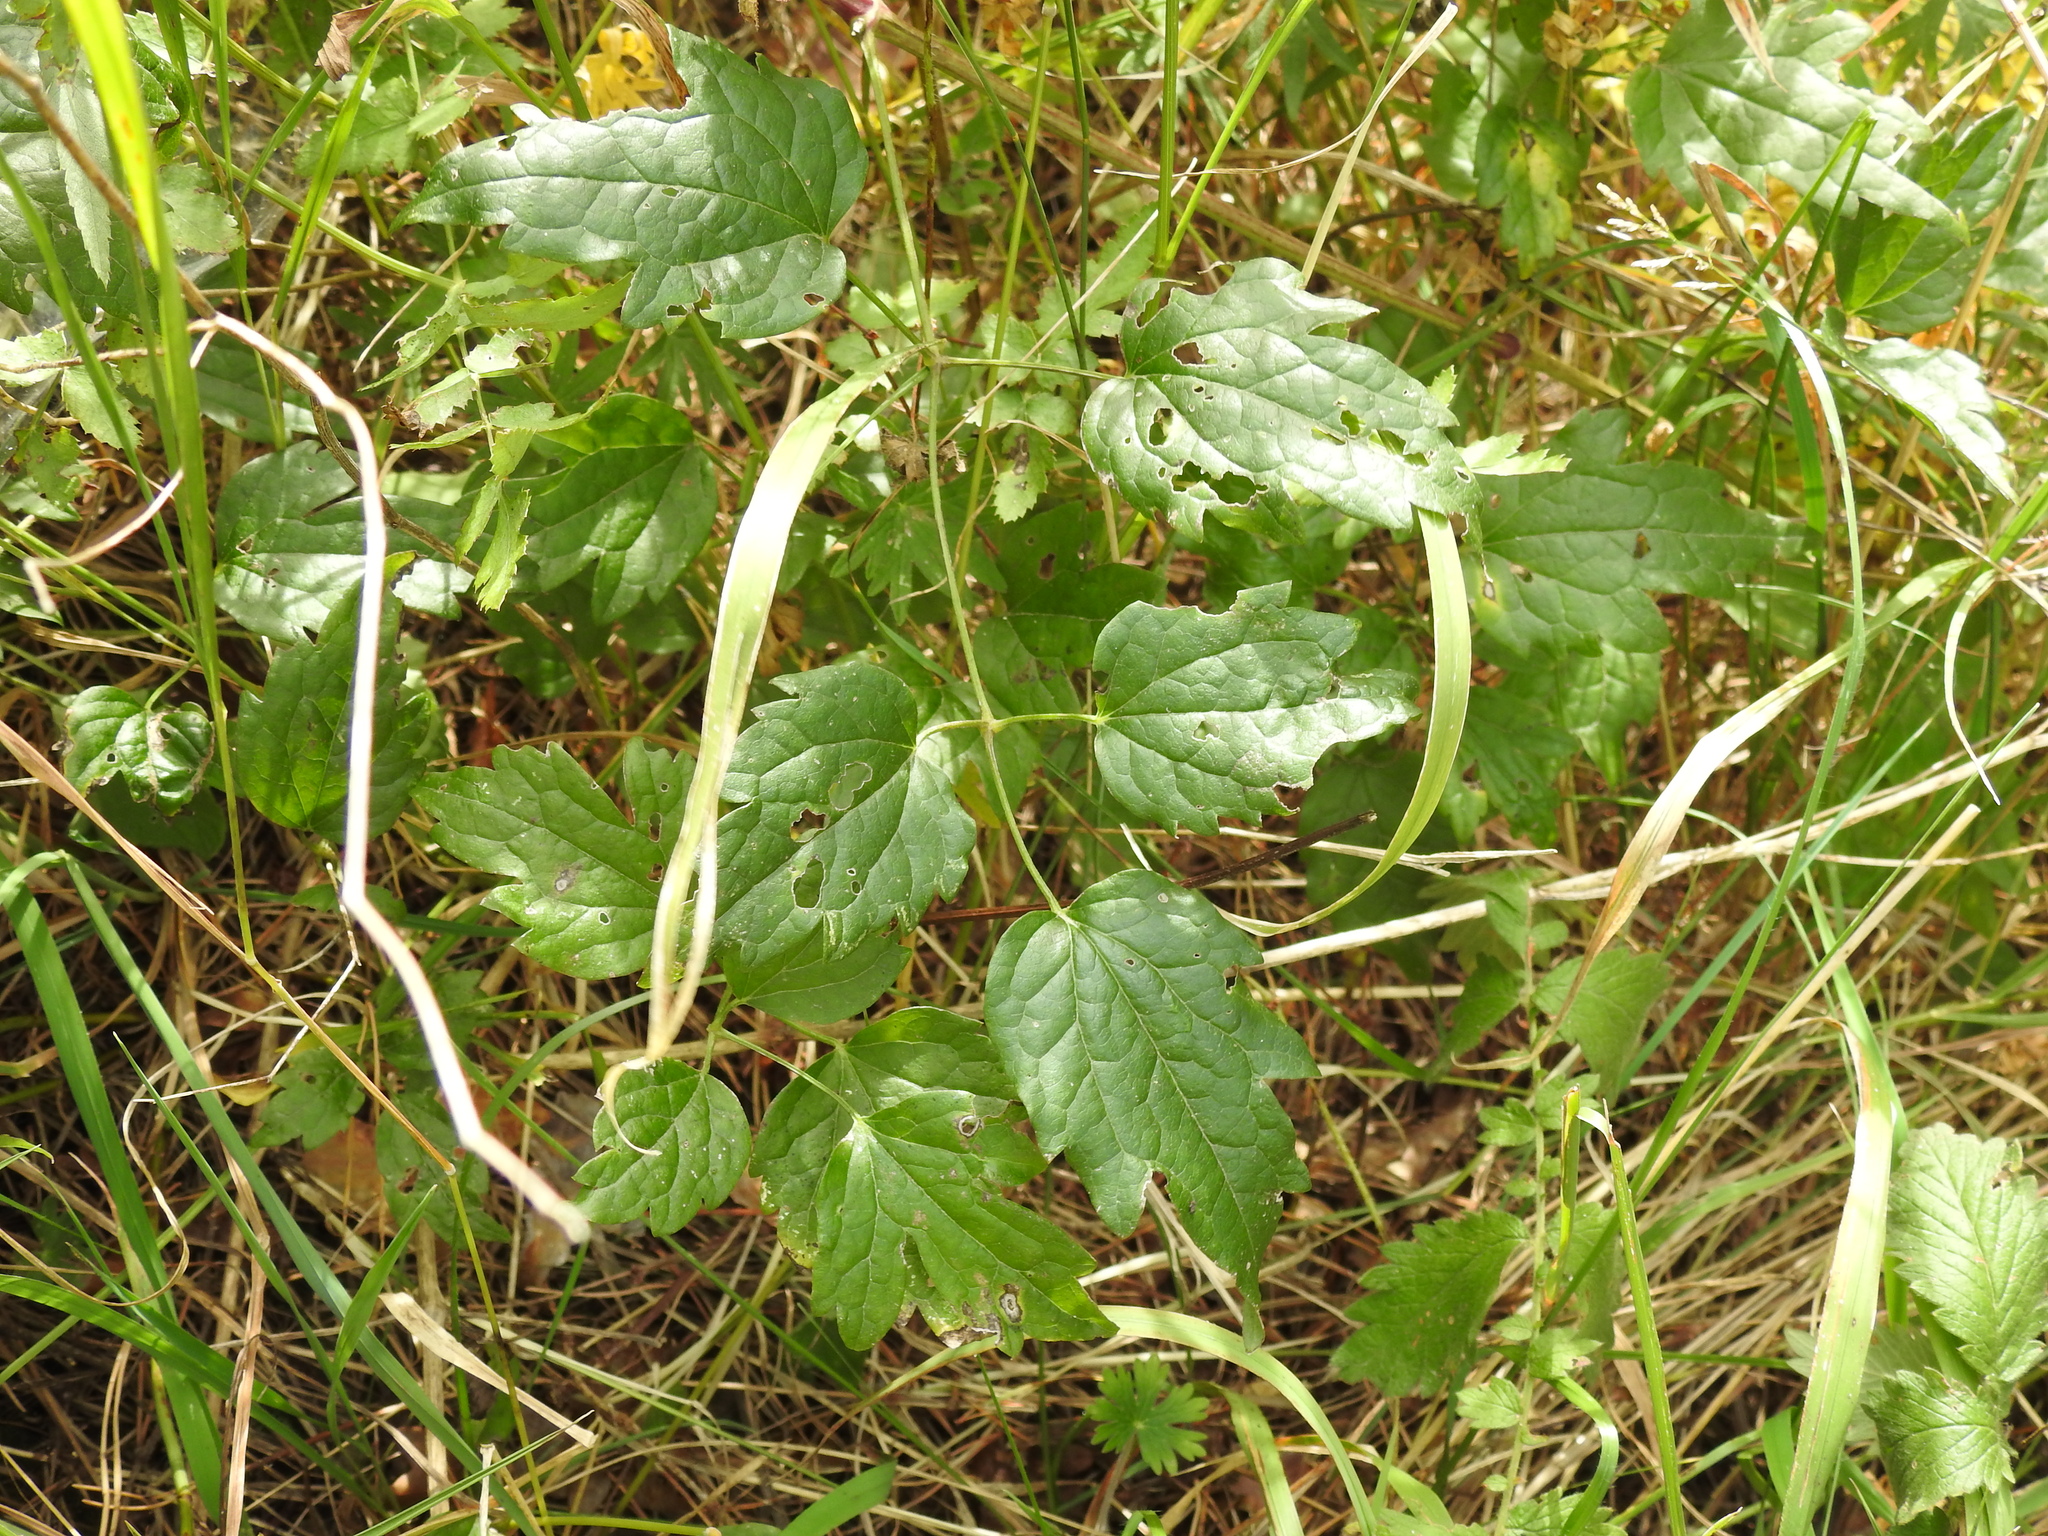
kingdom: Plantae
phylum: Tracheophyta
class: Magnoliopsida
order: Ranunculales
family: Ranunculaceae
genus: Clematis
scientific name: Clematis vitalba
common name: Evergreen clematis
